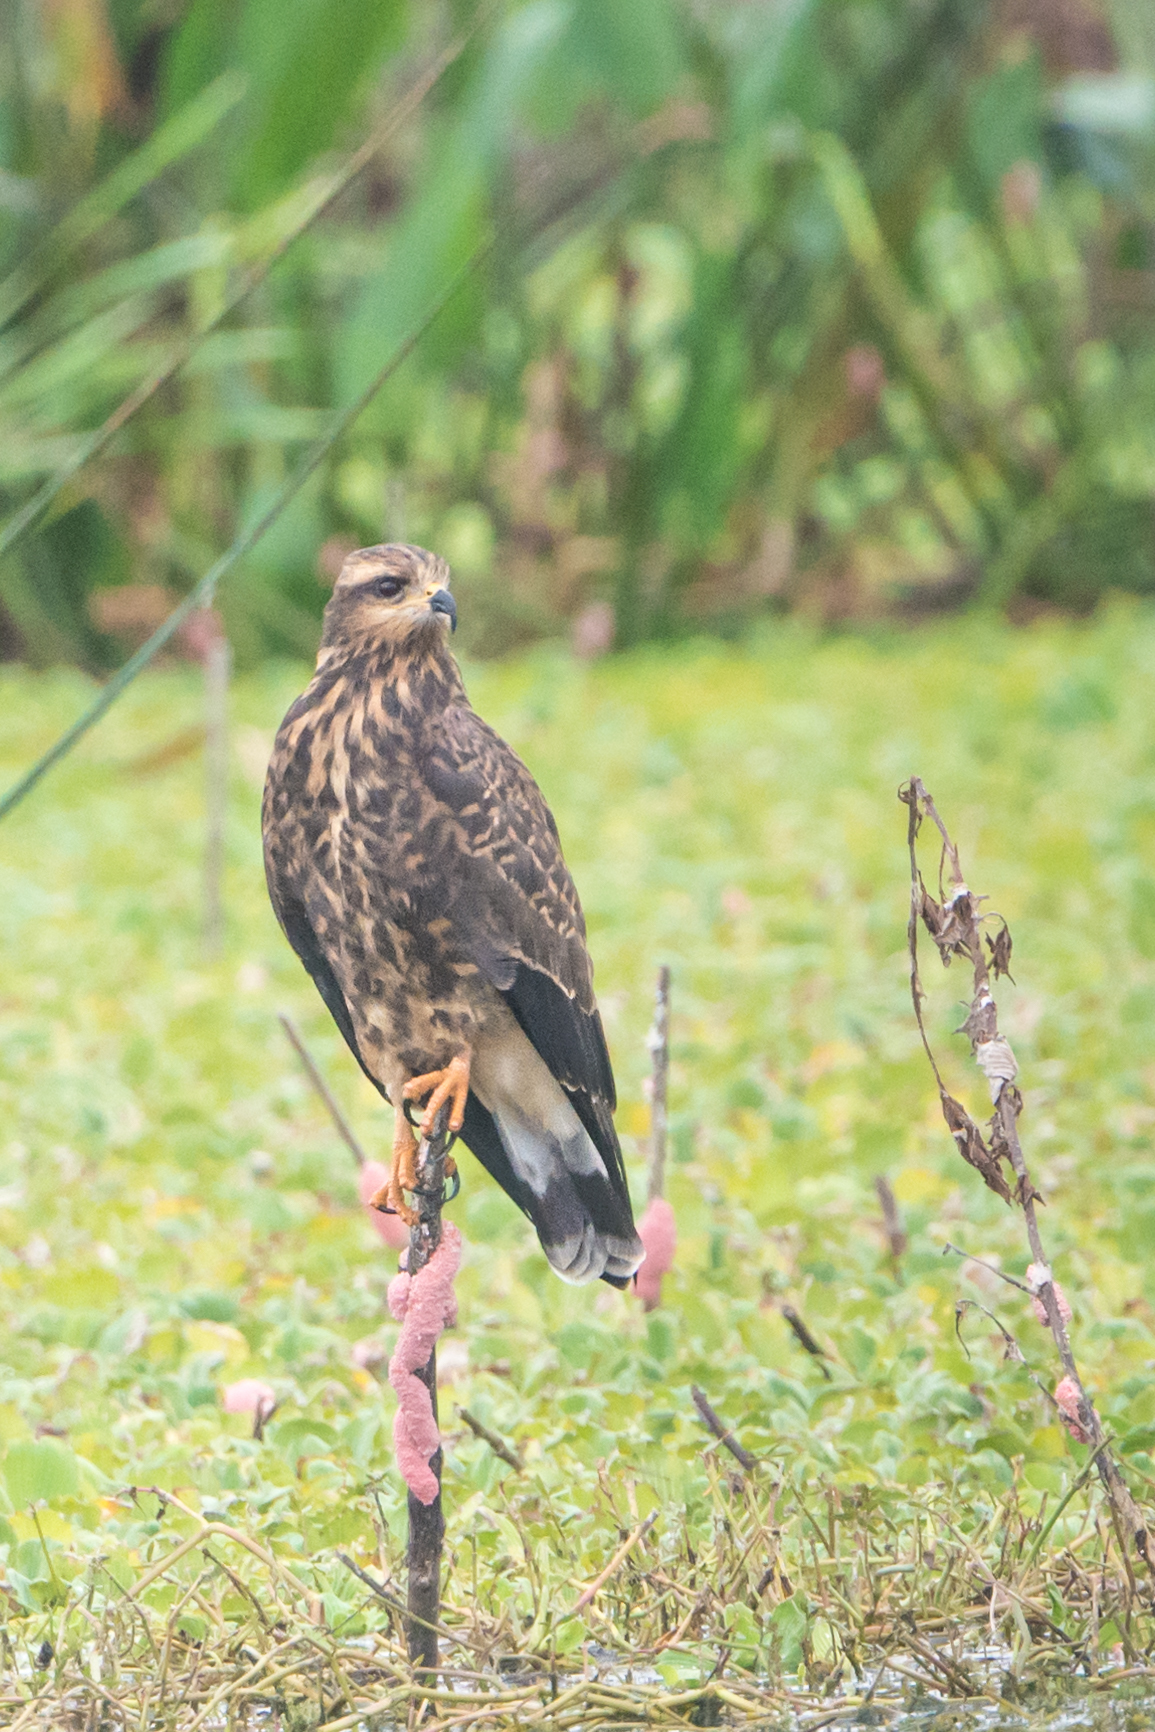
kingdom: Animalia
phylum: Chordata
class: Aves
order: Accipitriformes
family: Accipitridae
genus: Rostrhamus
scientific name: Rostrhamus sociabilis
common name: Snail kite
